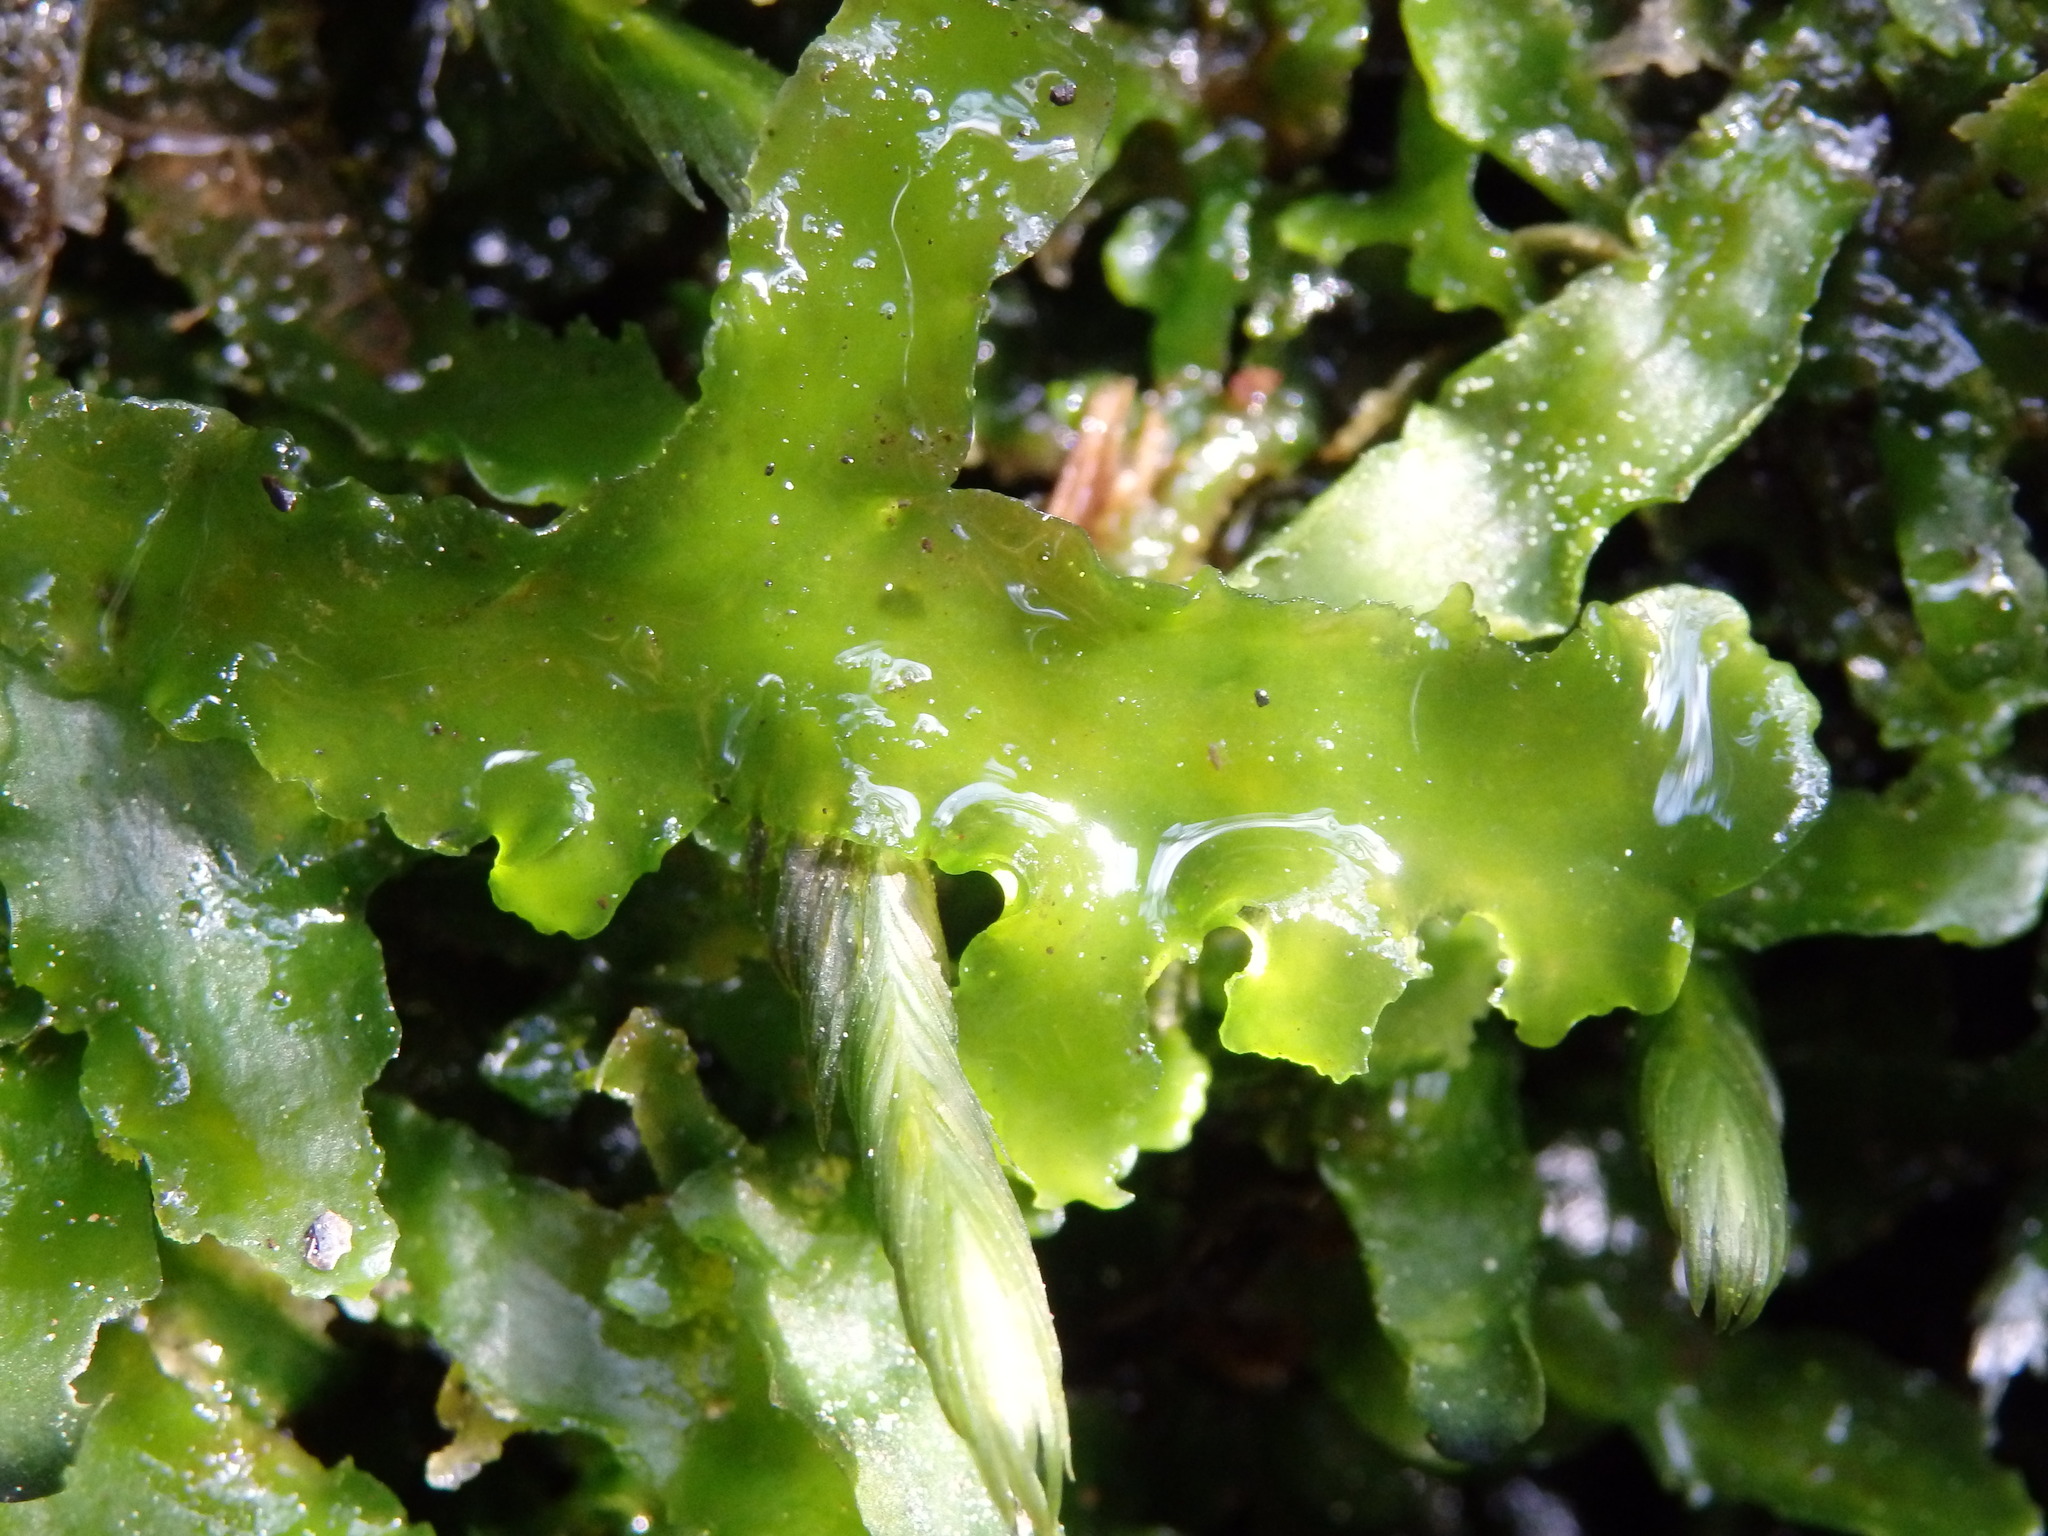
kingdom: Plantae
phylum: Marchantiophyta
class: Jungermanniopsida
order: Metzgeriales
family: Aneuraceae
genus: Aneura
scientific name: Aneura pinguis
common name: Common greasewort
